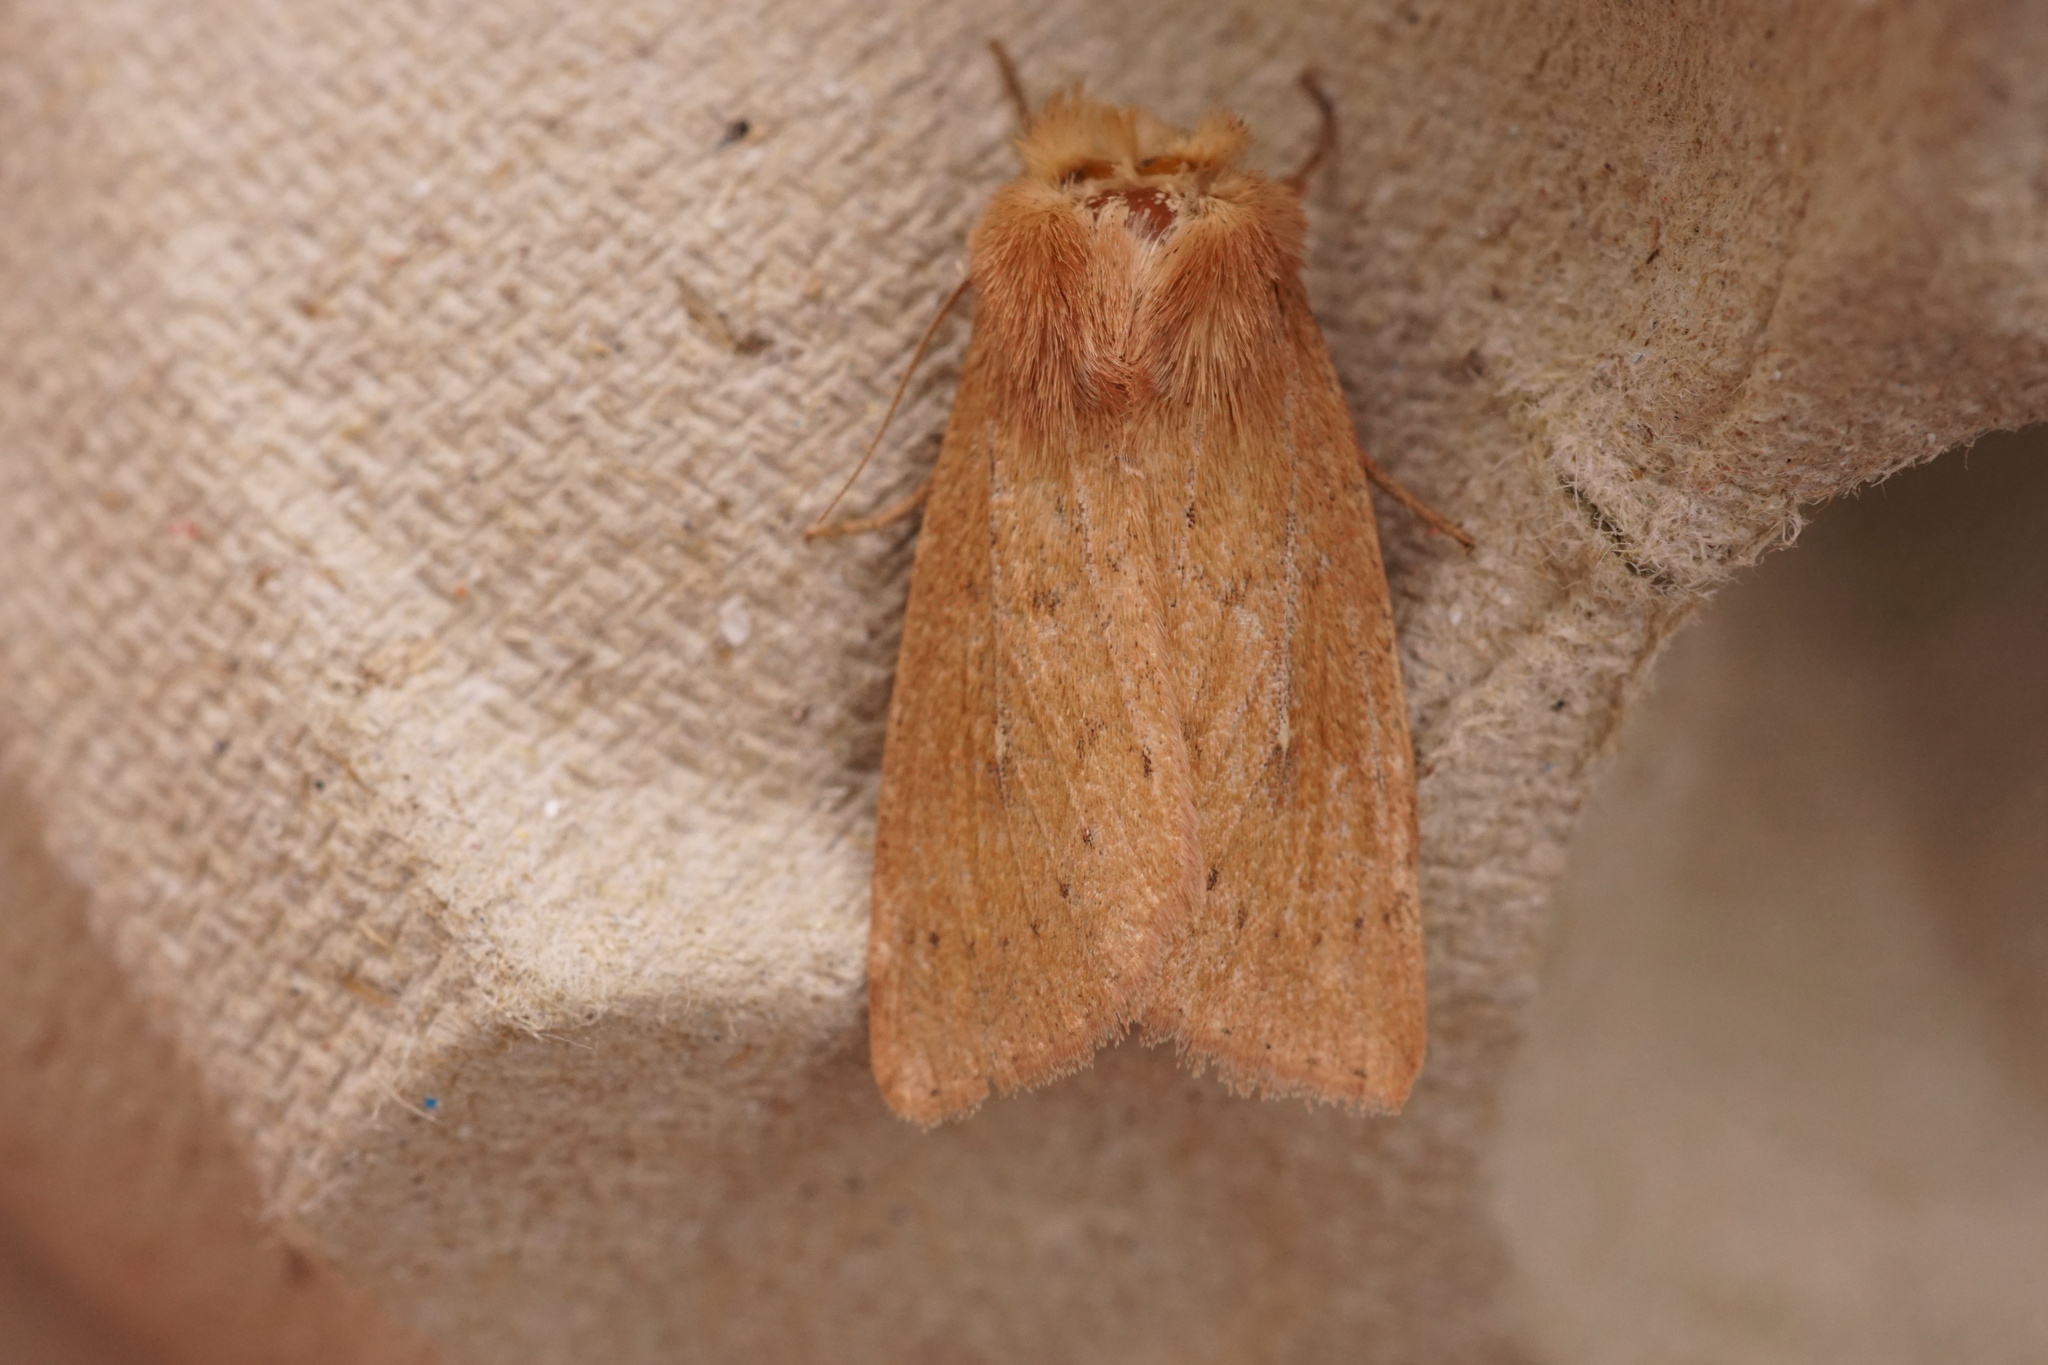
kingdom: Animalia
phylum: Arthropoda
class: Insecta
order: Lepidoptera
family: Noctuidae
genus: Mythimna
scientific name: Mythimna ferrago
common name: Clay
